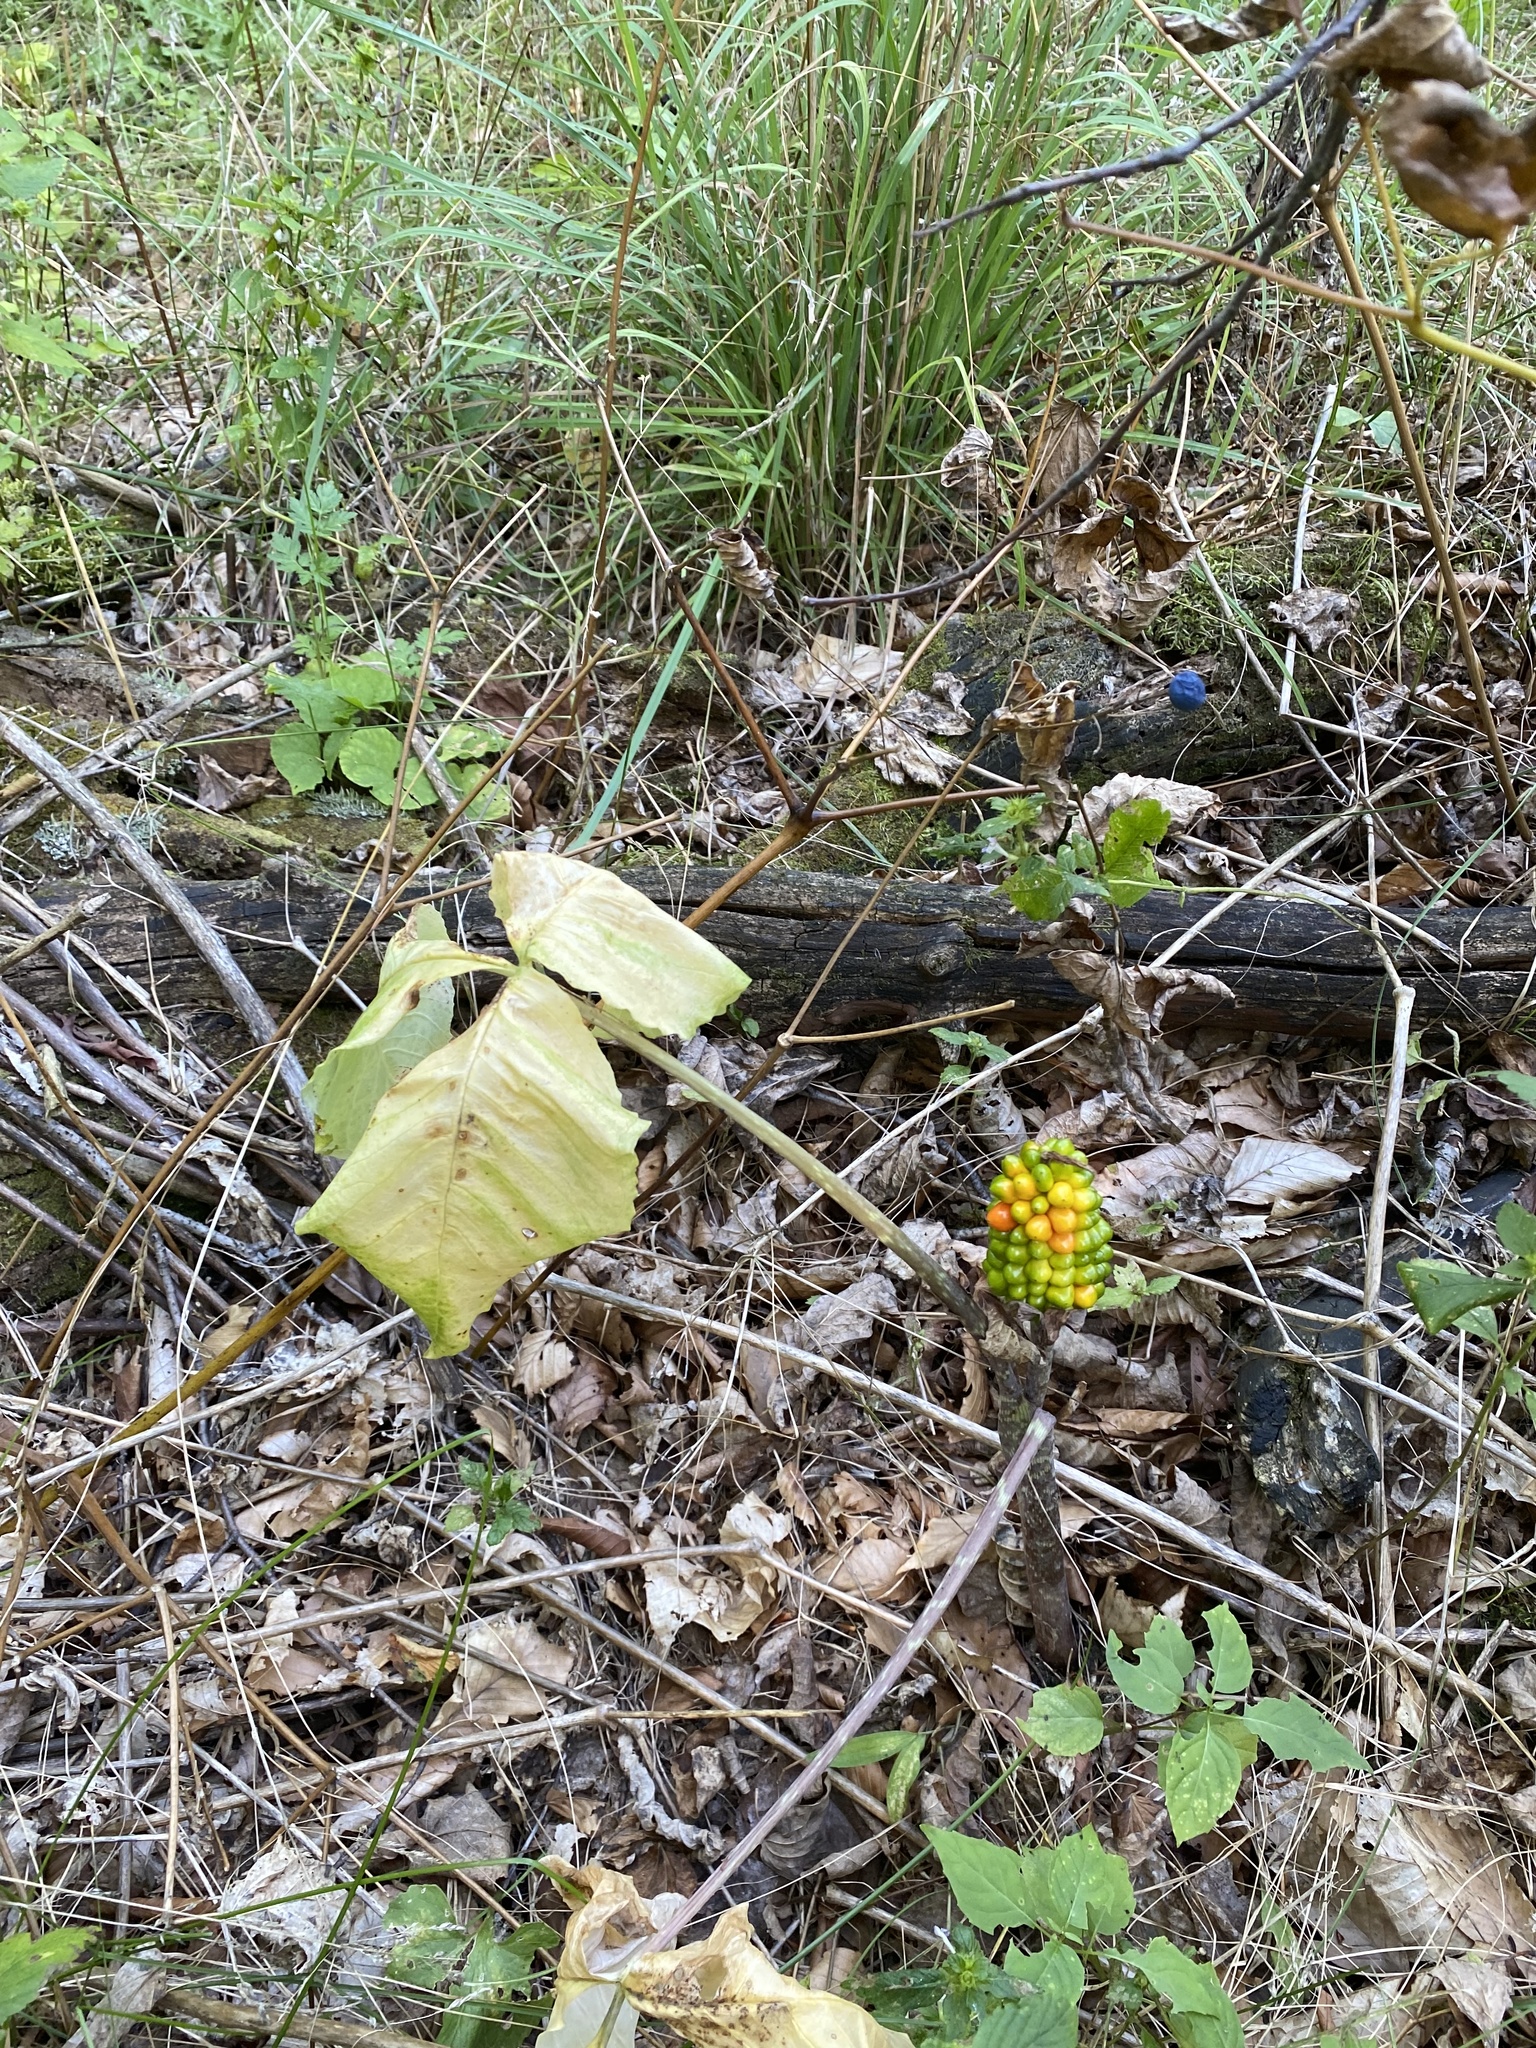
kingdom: Plantae
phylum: Tracheophyta
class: Liliopsida
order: Alismatales
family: Araceae
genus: Arisaema
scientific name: Arisaema triphyllum
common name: Jack-in-the-pulpit
